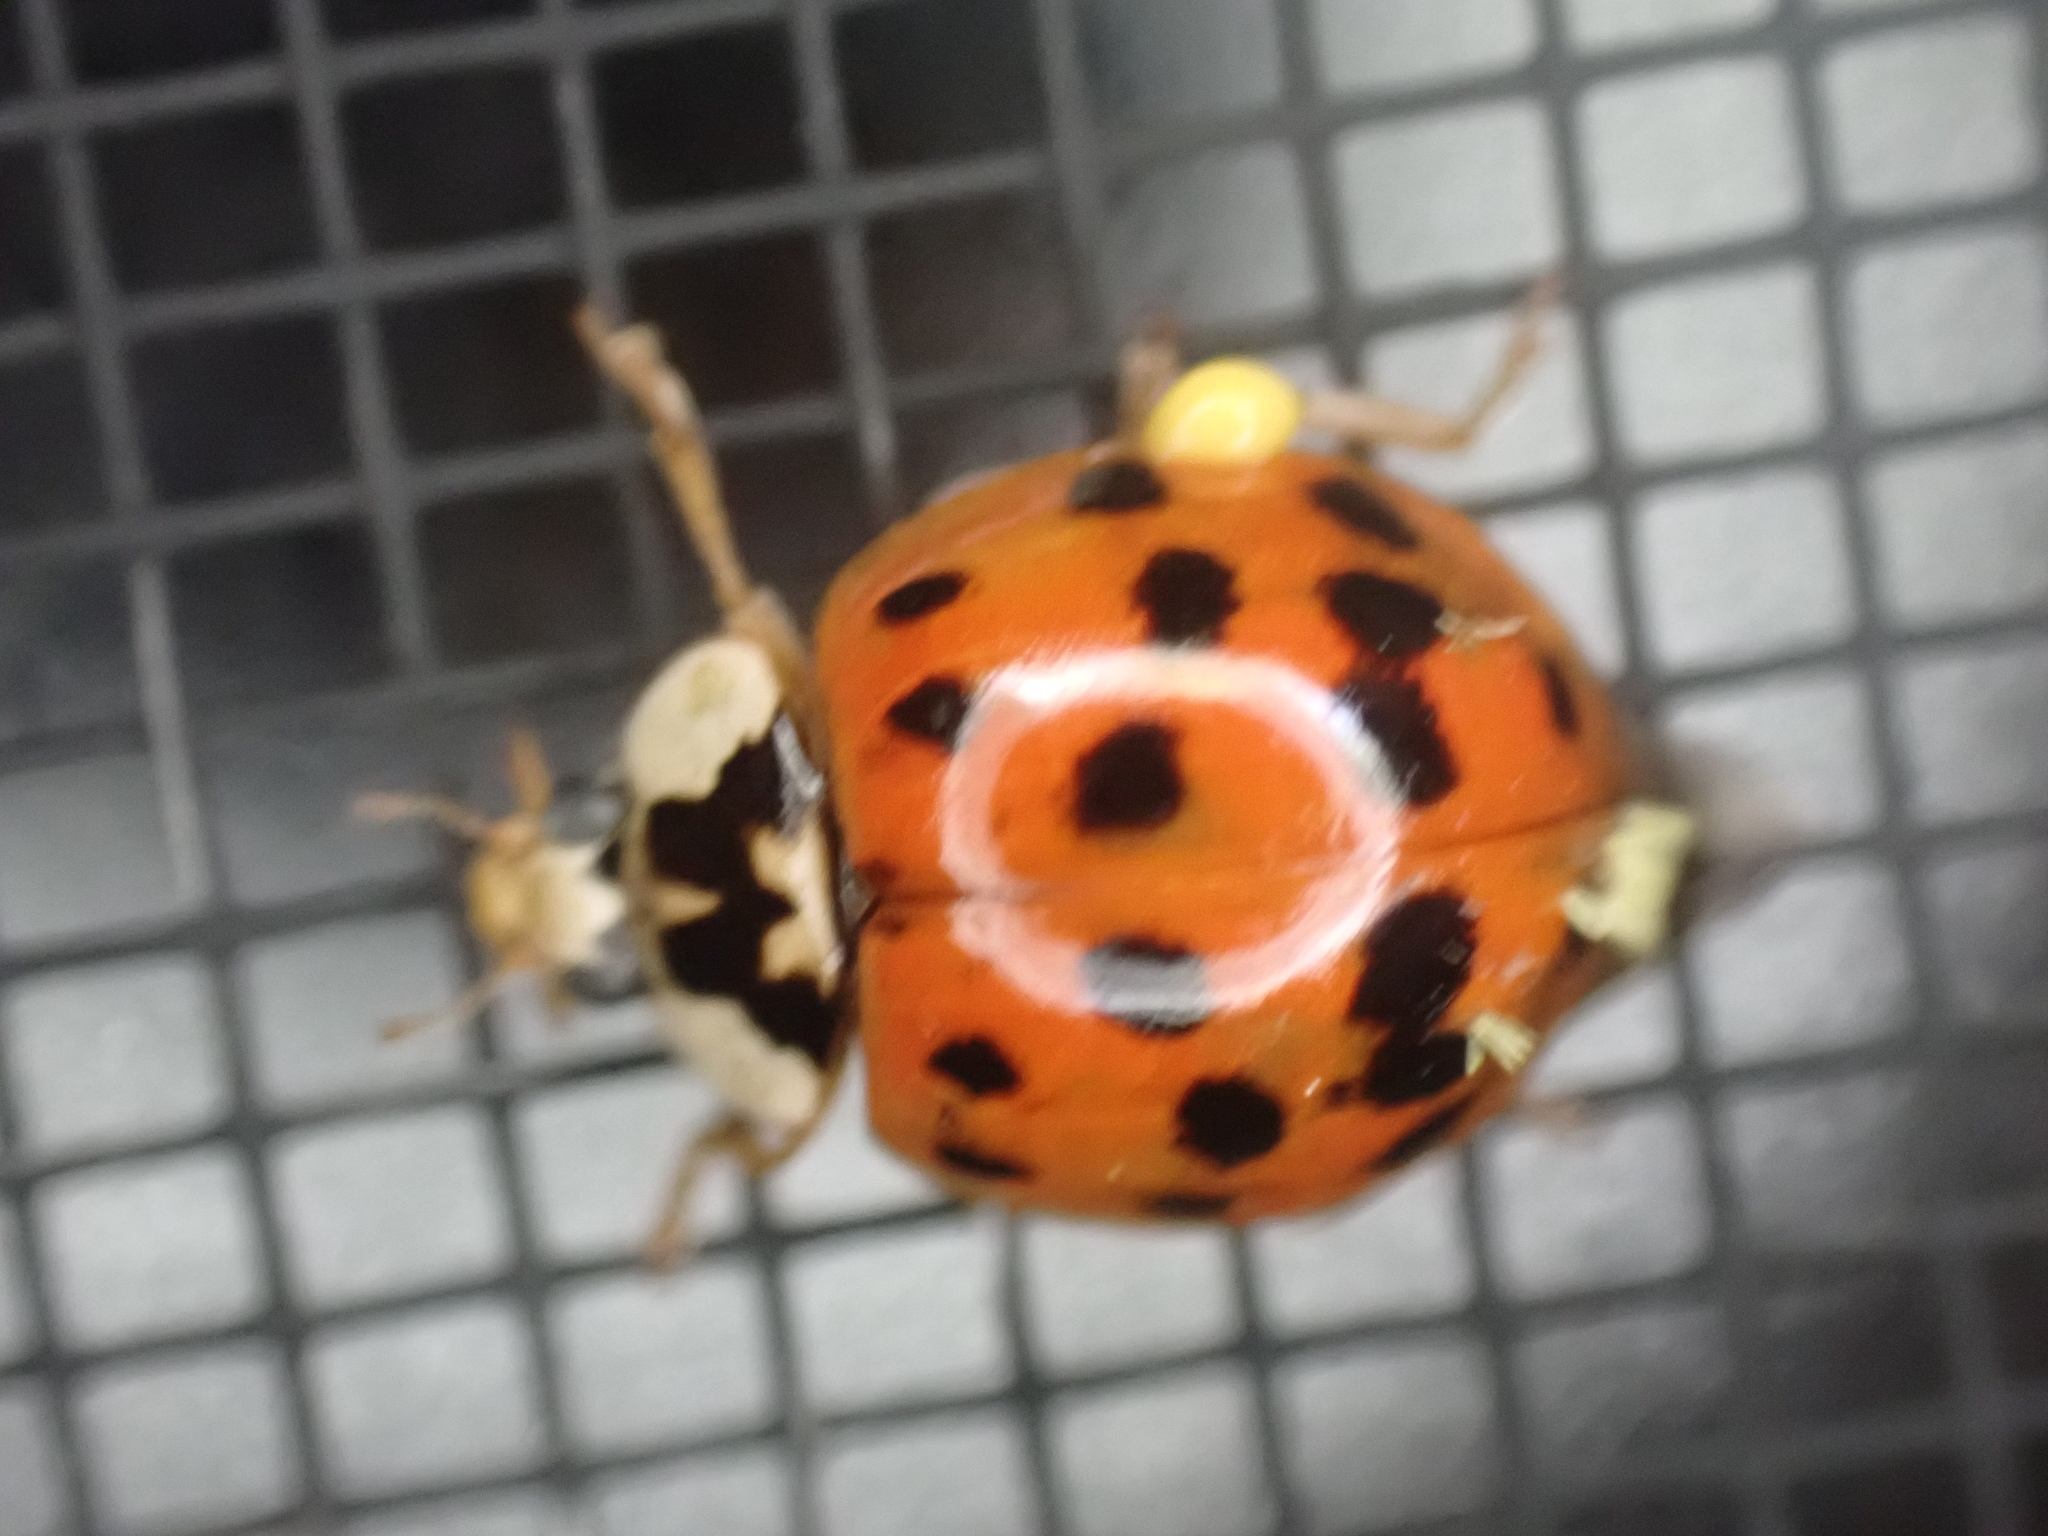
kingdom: Animalia
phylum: Arthropoda
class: Insecta
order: Coleoptera
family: Coccinellidae
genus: Harmonia
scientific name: Harmonia axyridis
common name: Harlequin ladybird
